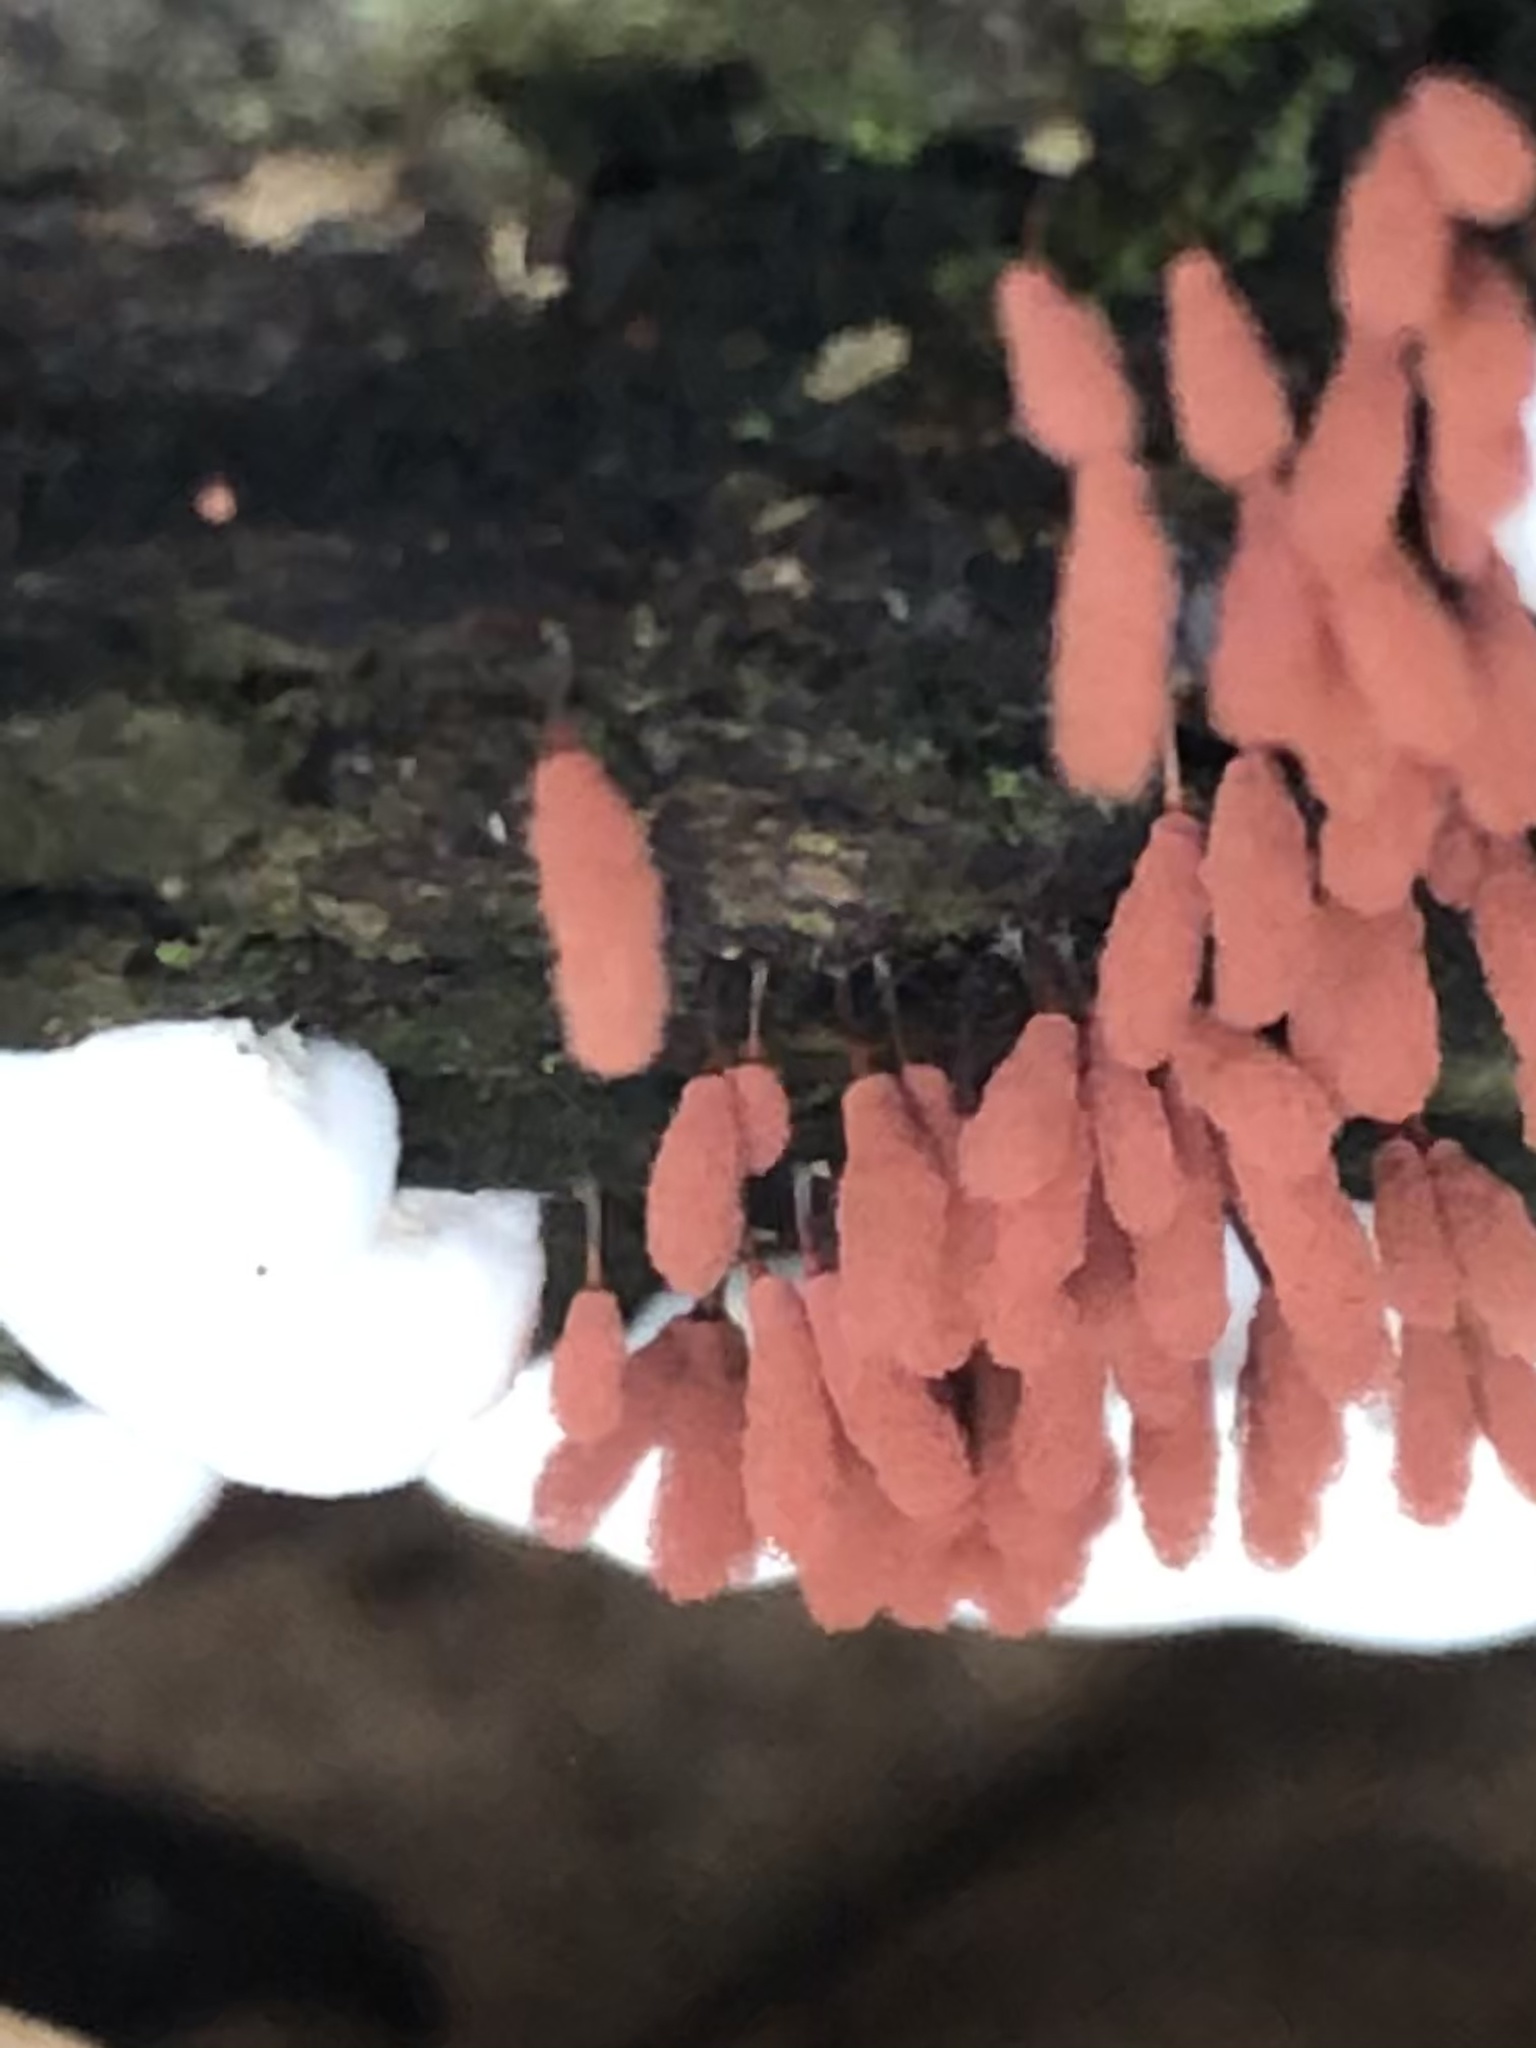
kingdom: Protozoa
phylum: Mycetozoa
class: Myxomycetes
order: Trichiales
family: Arcyriaceae
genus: Arcyria
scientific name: Arcyria denudata
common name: Carnival candy slime mold
